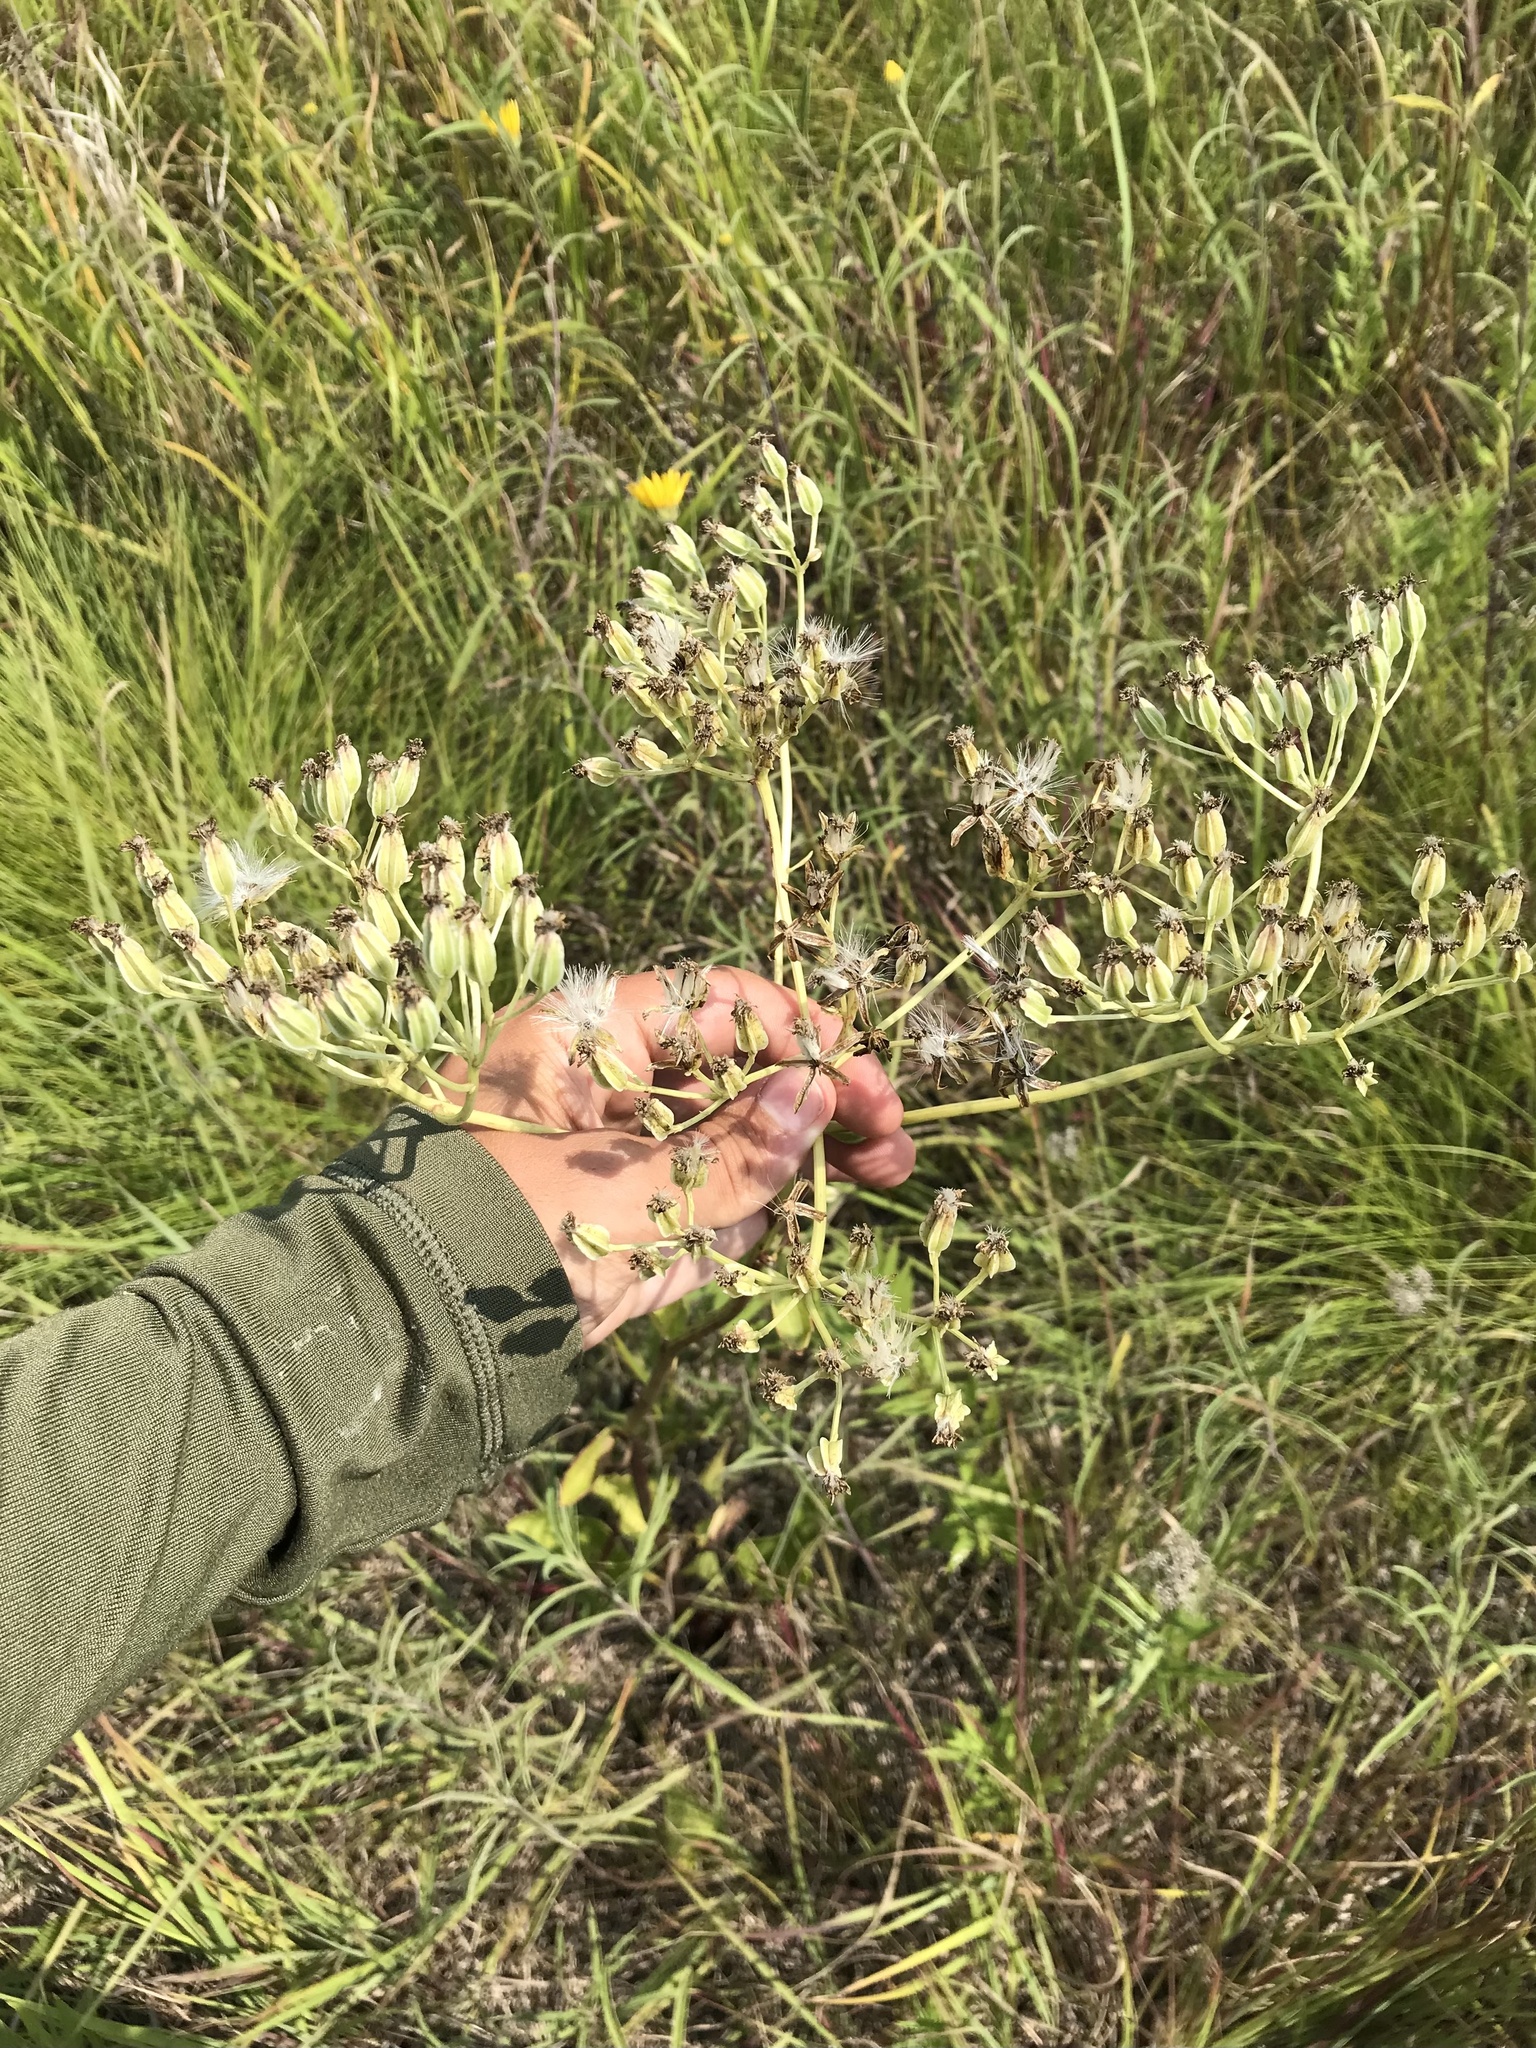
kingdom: Plantae
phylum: Tracheophyta
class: Magnoliopsida
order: Asterales
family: Asteraceae
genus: Arnoglossum
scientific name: Arnoglossum plantagineum
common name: Groove-stemmed indian-plantain
